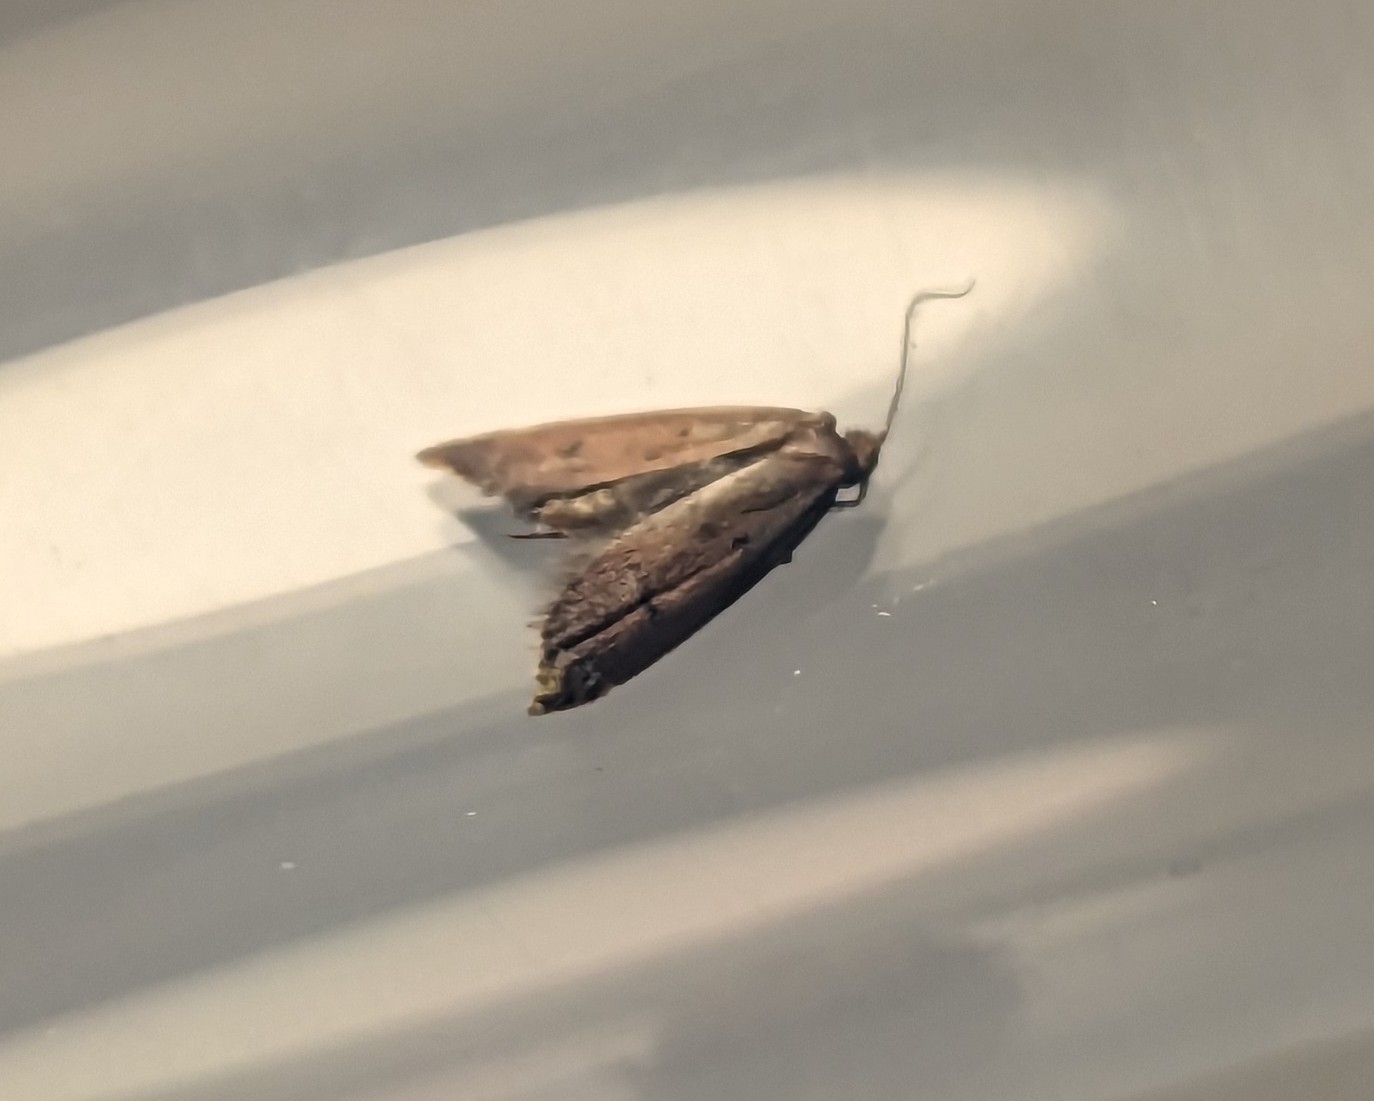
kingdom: Animalia
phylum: Arthropoda
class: Insecta
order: Lepidoptera
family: Oecophoridae
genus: Tachystola
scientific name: Tachystola acroxantha
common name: Ruddy streak
